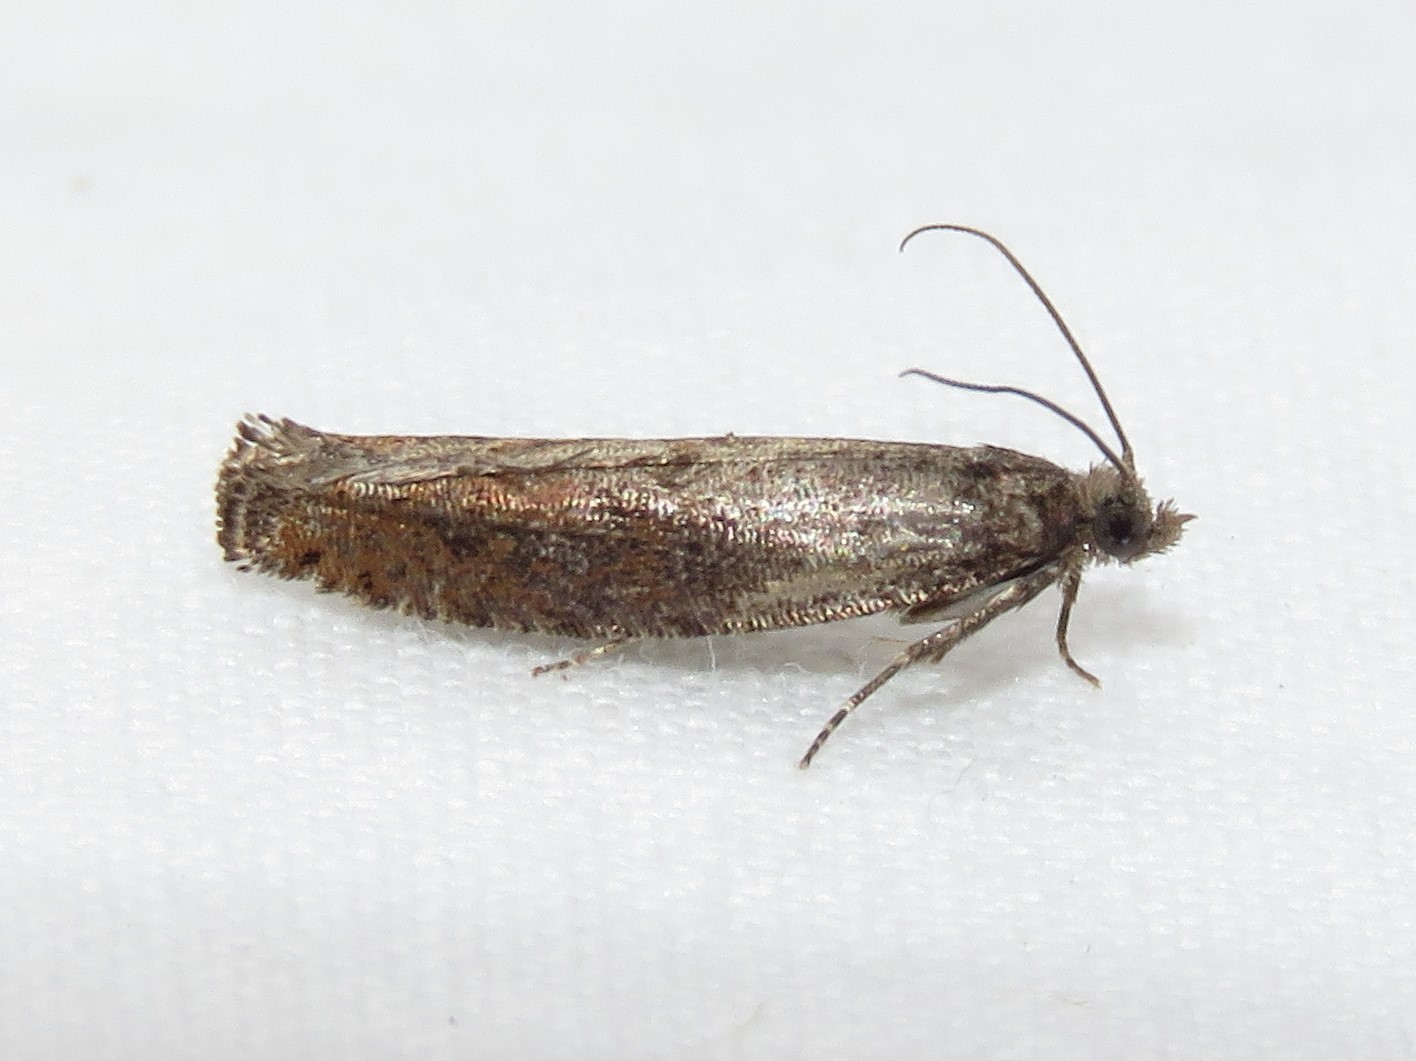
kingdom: Animalia
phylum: Arthropoda
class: Insecta
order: Lepidoptera
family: Tortricidae
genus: Pseudexentera
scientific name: Pseudexentera mali
